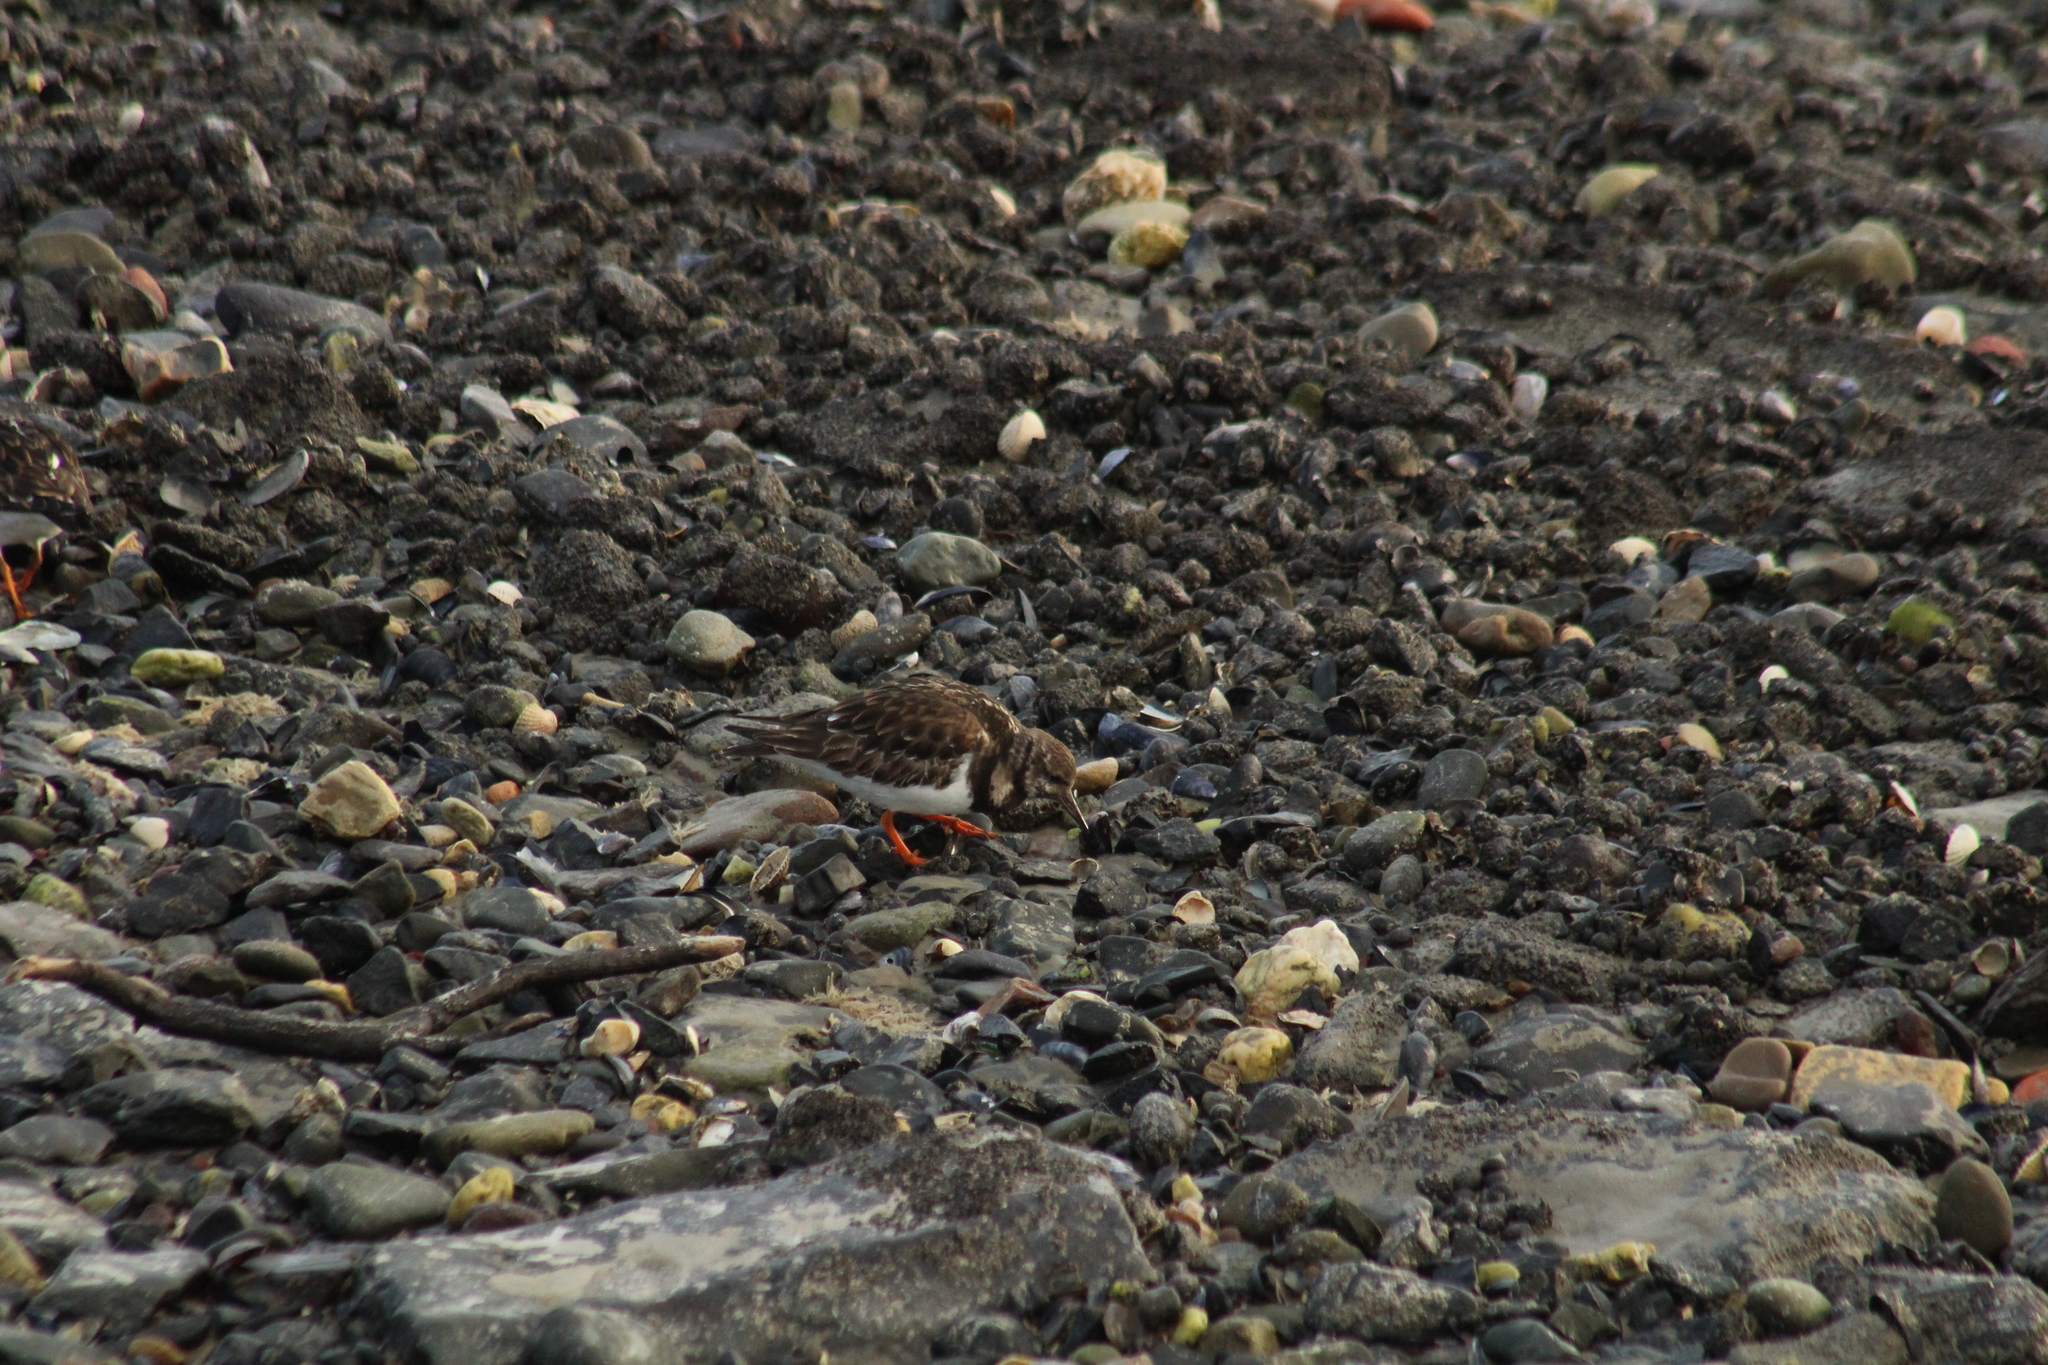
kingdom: Animalia
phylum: Chordata
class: Aves
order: Charadriiformes
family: Scolopacidae
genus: Arenaria
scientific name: Arenaria interpres
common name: Ruddy turnstone
